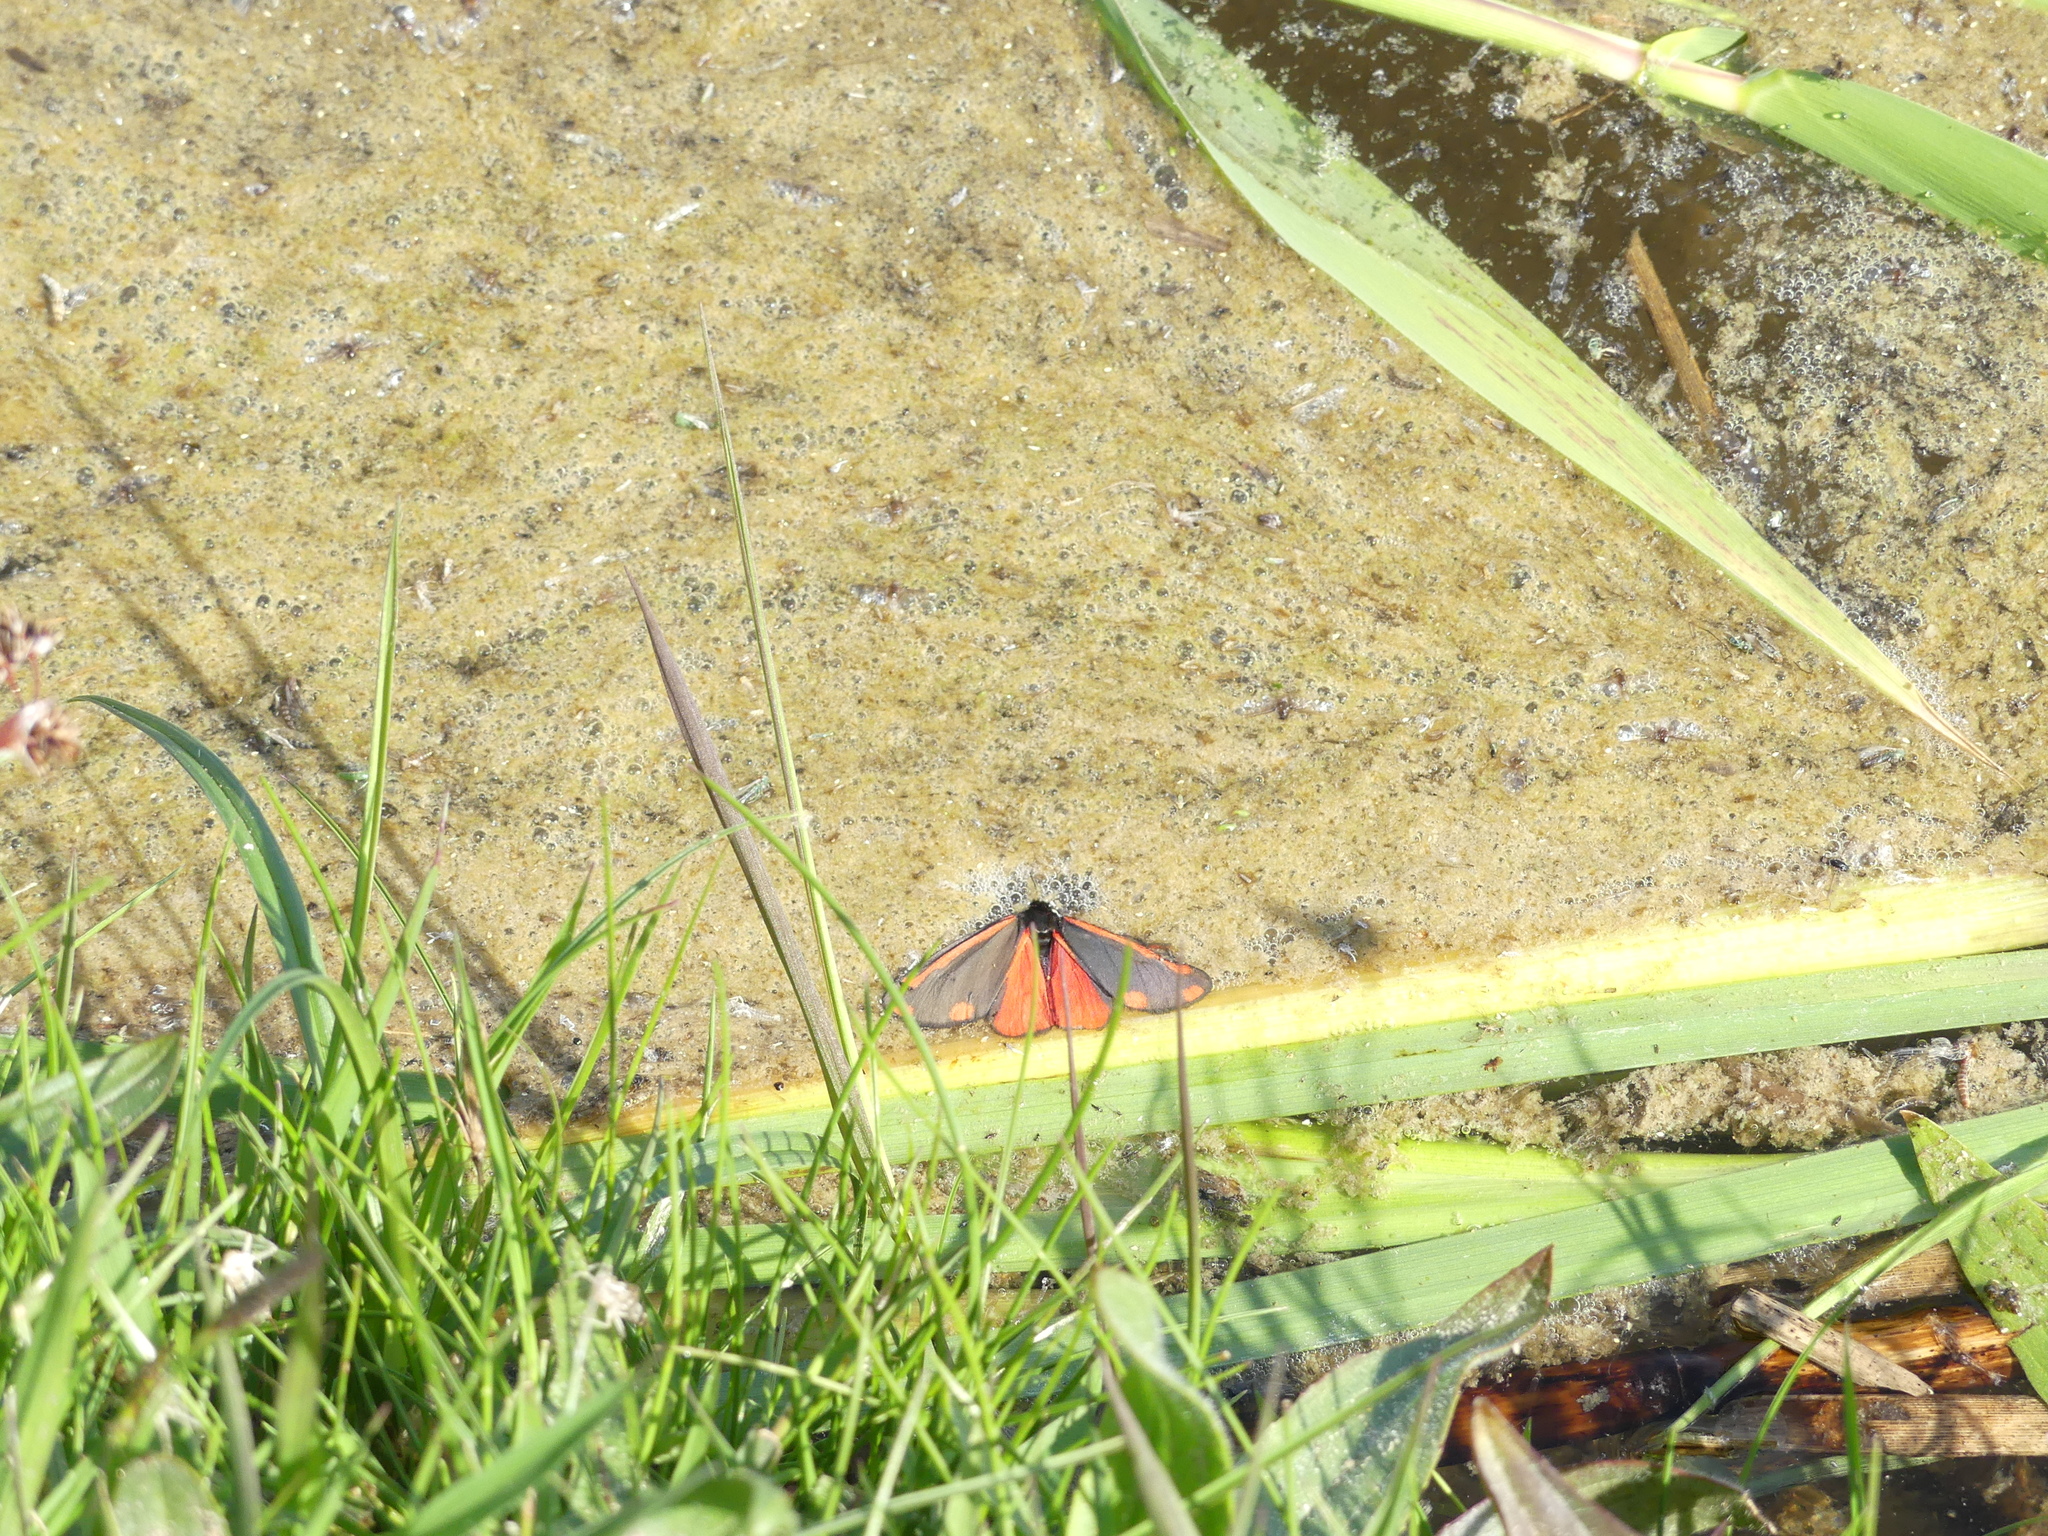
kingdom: Animalia
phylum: Arthropoda
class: Insecta
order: Lepidoptera
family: Erebidae
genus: Tyria
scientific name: Tyria jacobaeae
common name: Cinnabar
